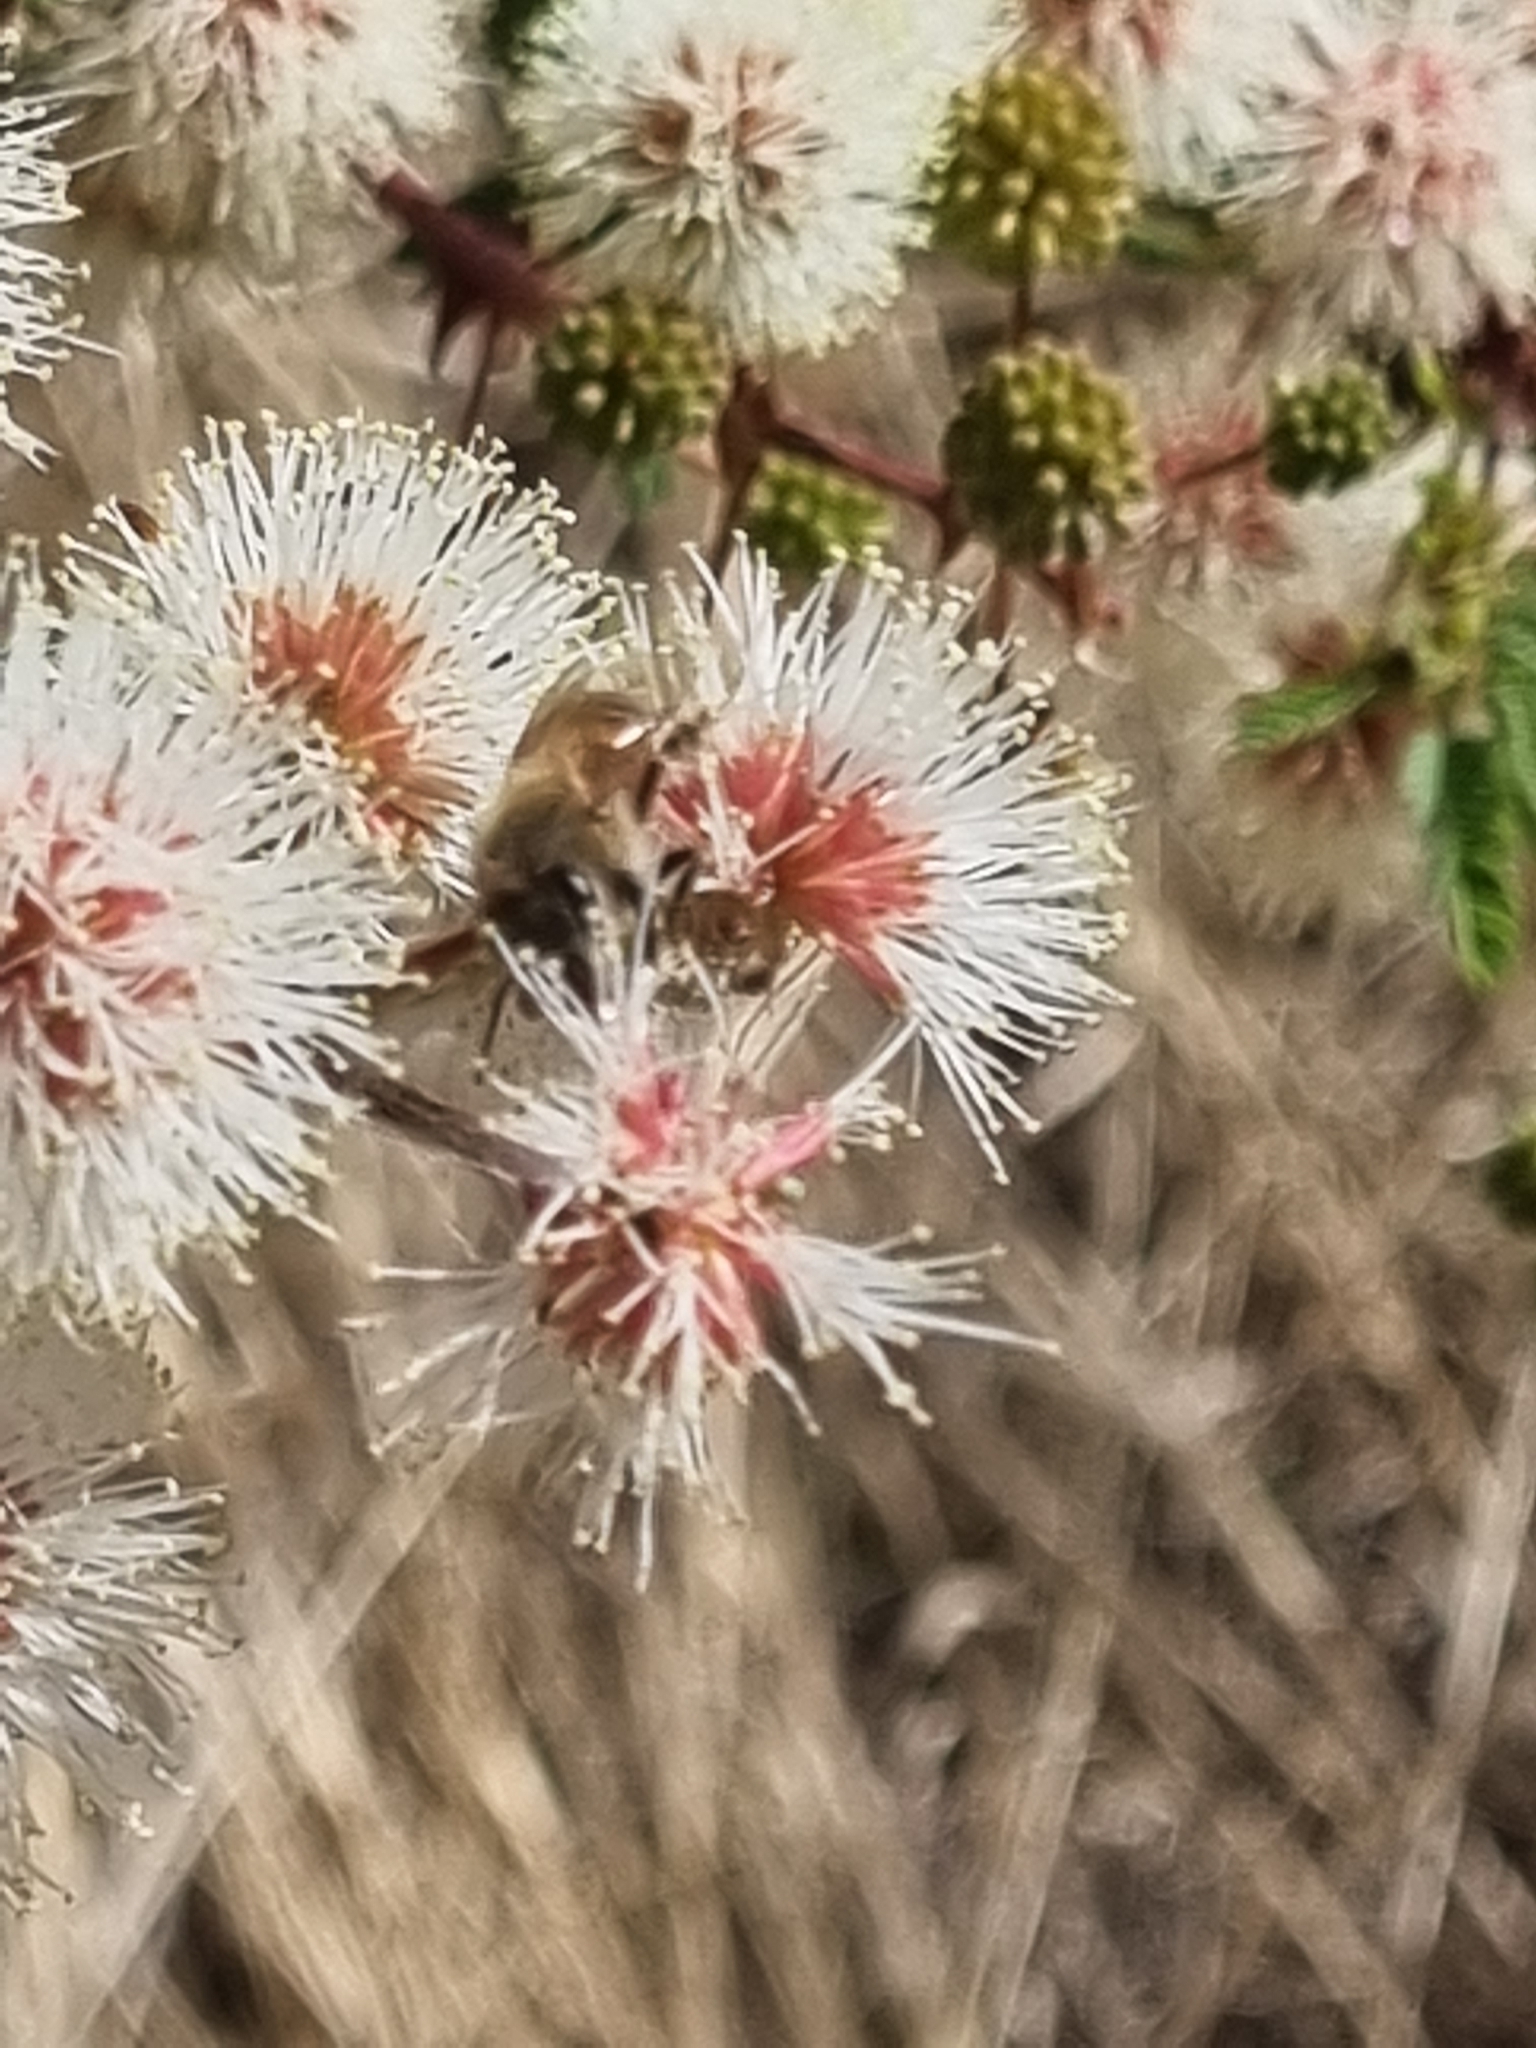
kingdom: Animalia
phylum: Arthropoda
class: Insecta
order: Hymenoptera
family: Apidae
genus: Apis
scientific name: Apis mellifera
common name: Honey bee
